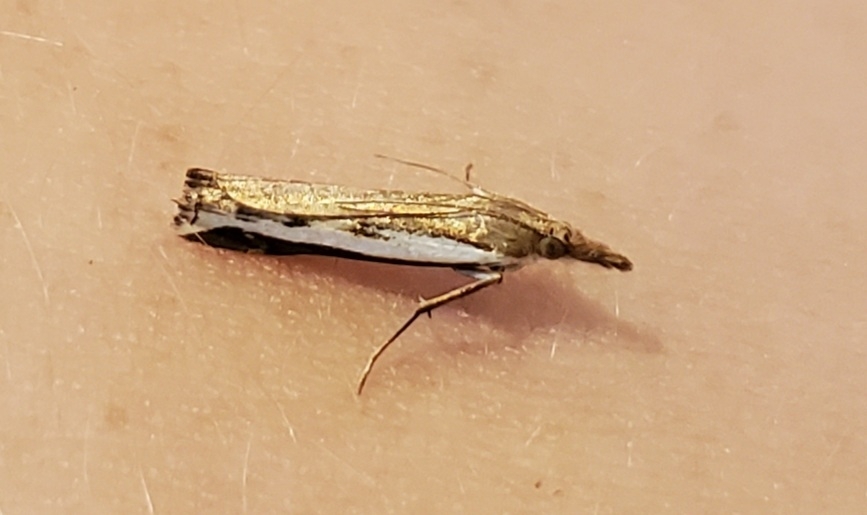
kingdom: Animalia
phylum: Arthropoda
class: Insecta
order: Lepidoptera
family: Crambidae
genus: Orocrambus
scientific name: Orocrambus flexuosellus
